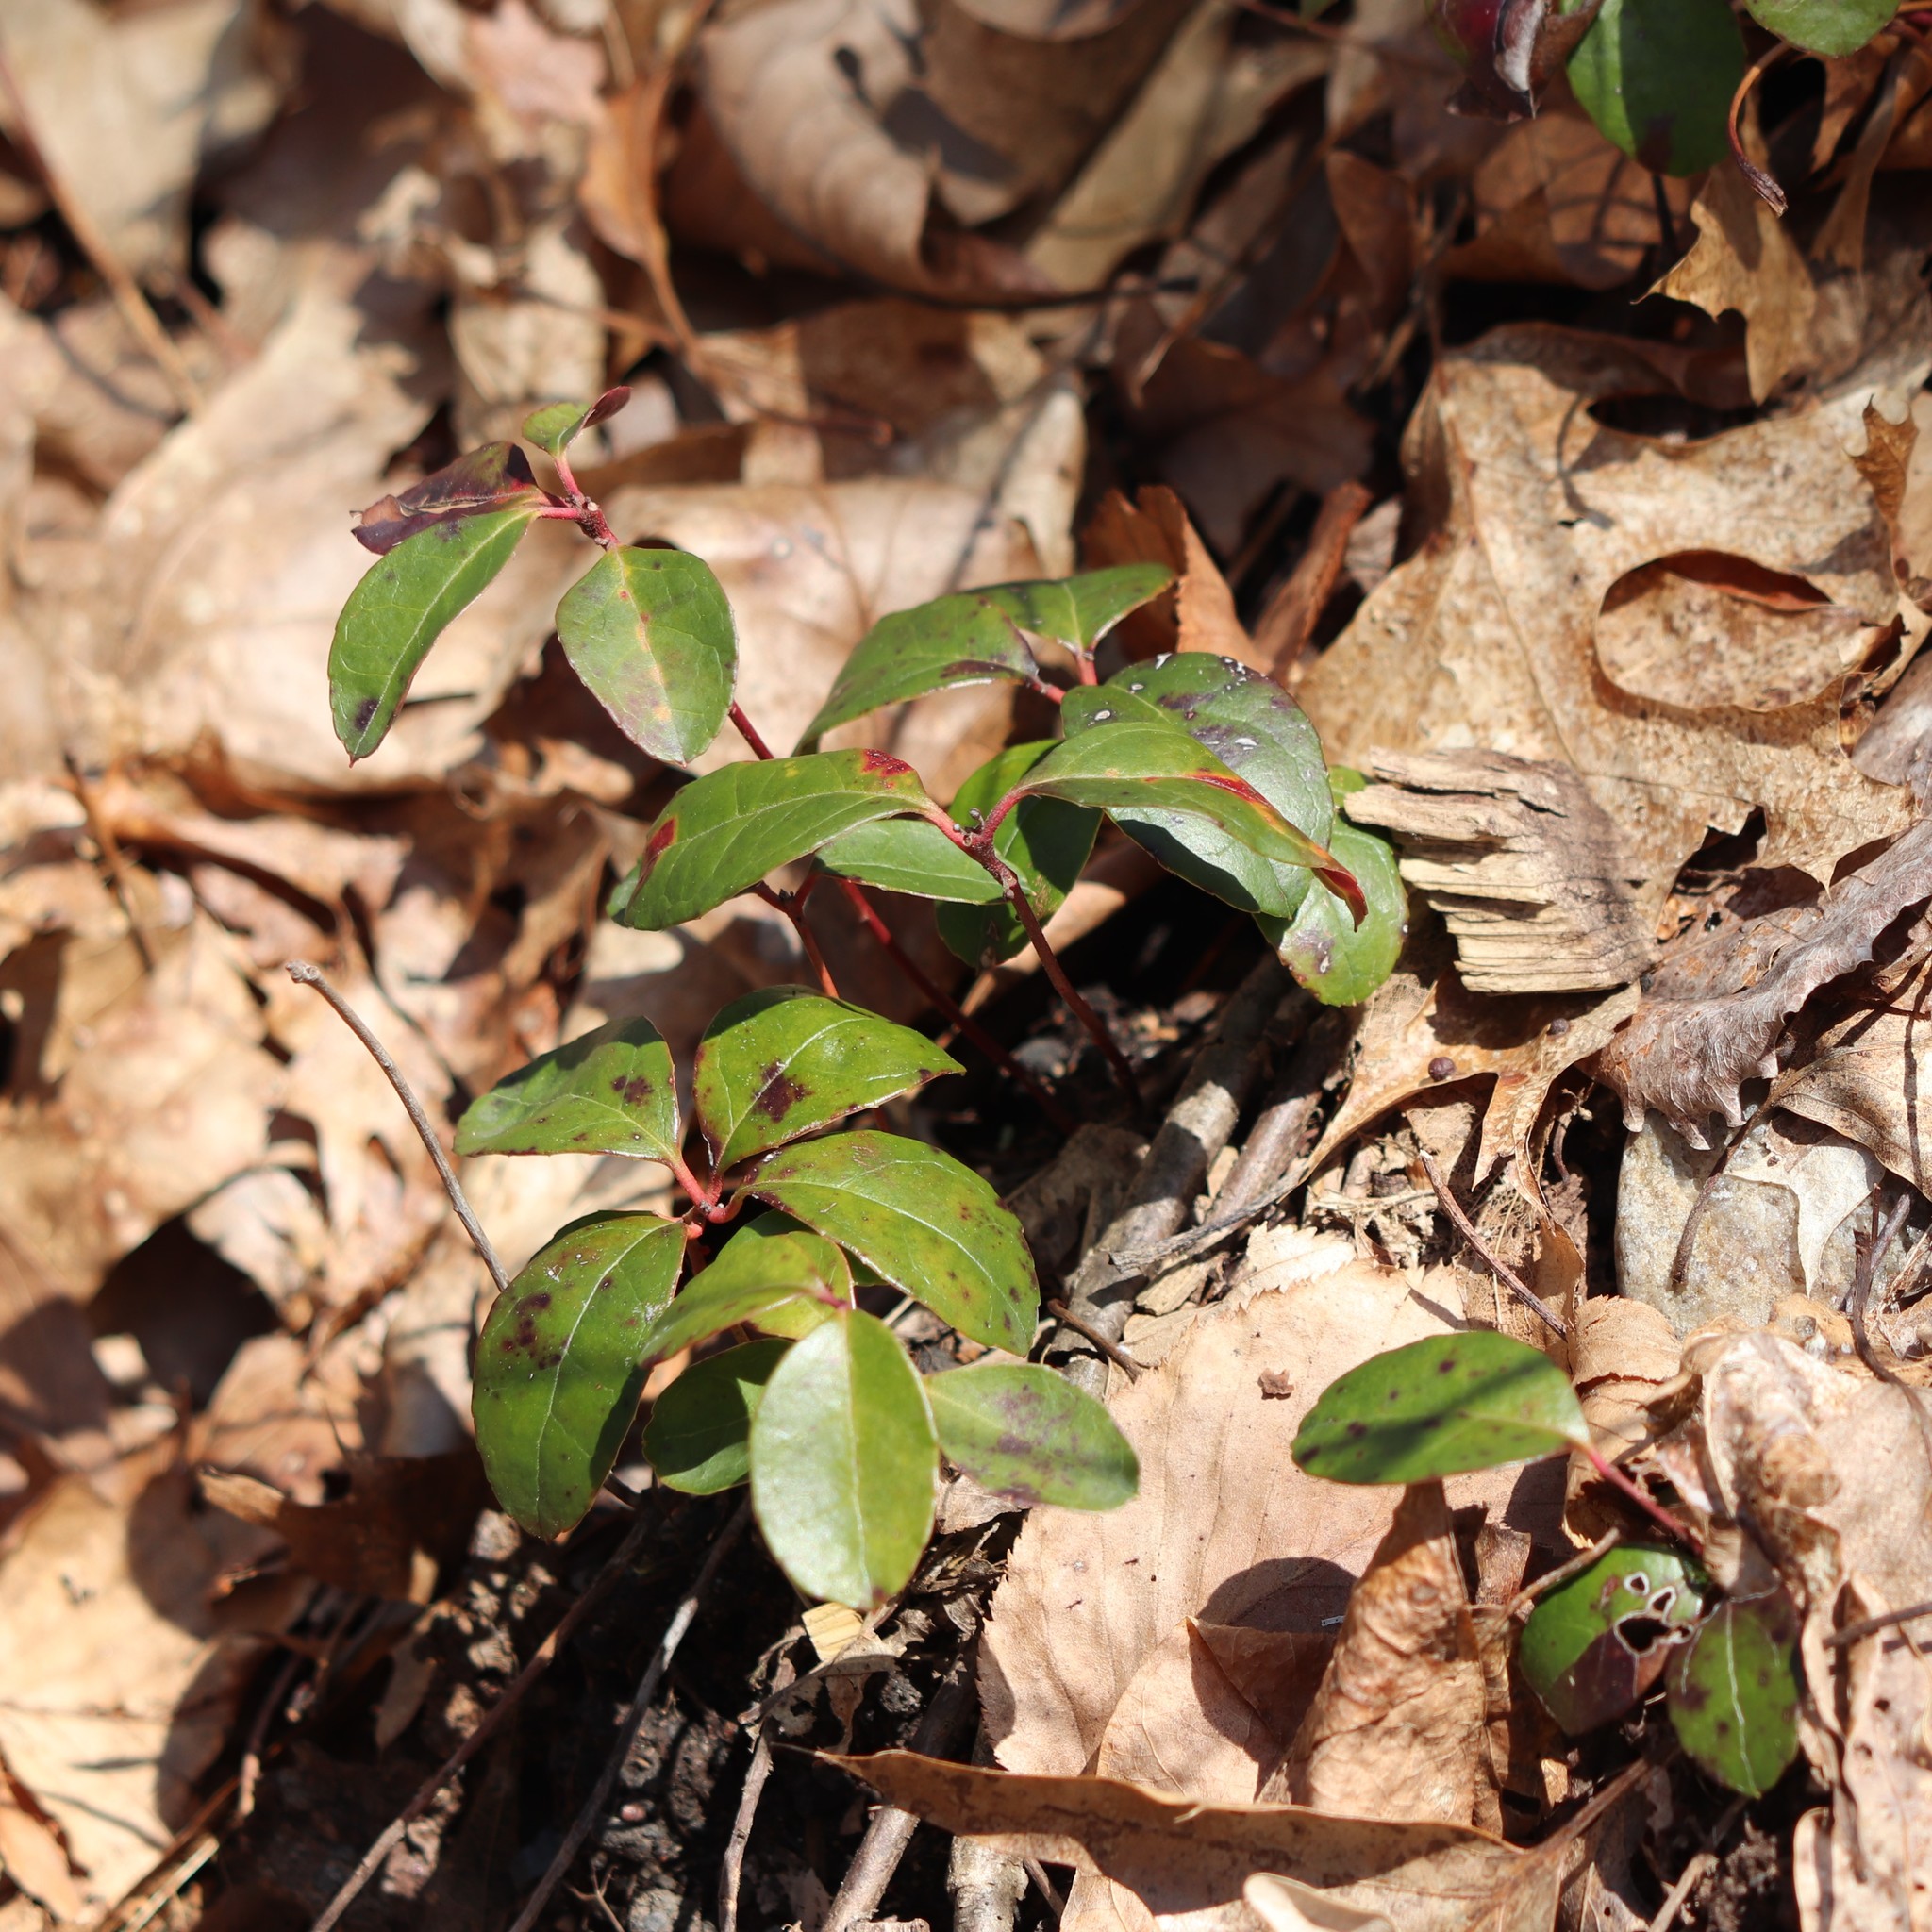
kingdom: Plantae
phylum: Tracheophyta
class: Magnoliopsida
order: Ericales
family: Ericaceae
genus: Gaultheria
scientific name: Gaultheria procumbens
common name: Checkerberry
